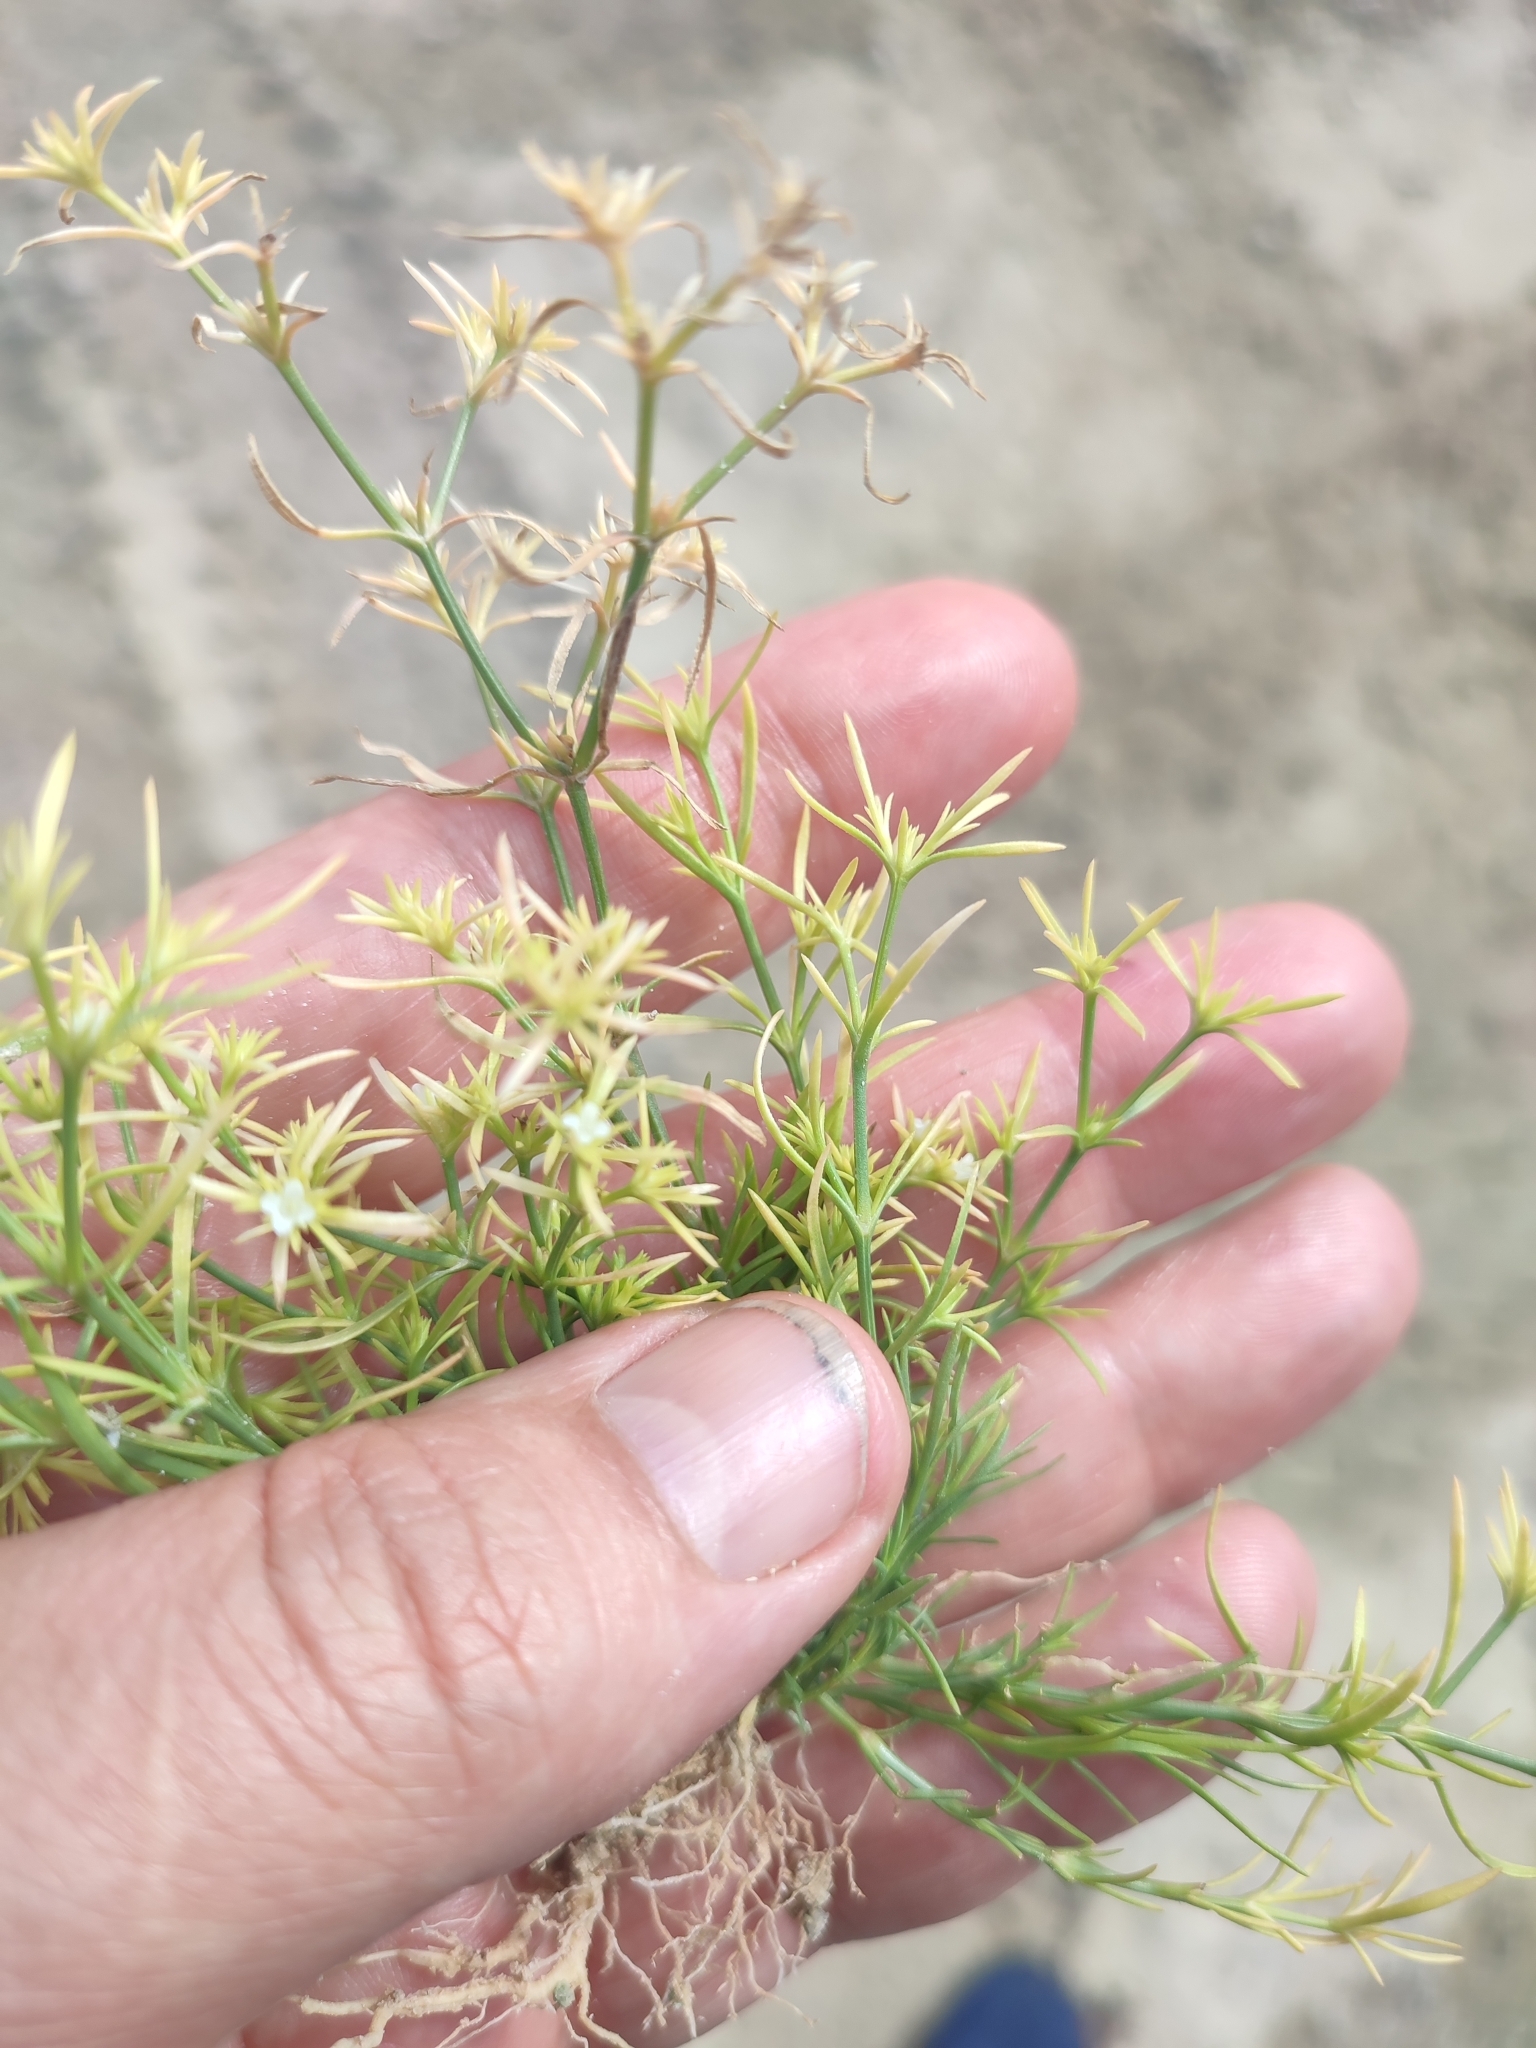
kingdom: Plantae
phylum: Tracheophyta
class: Magnoliopsida
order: Lamiales
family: Tetrachondraceae
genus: Polypremum
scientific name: Polypremum procumbens
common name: Juniper-leaf
